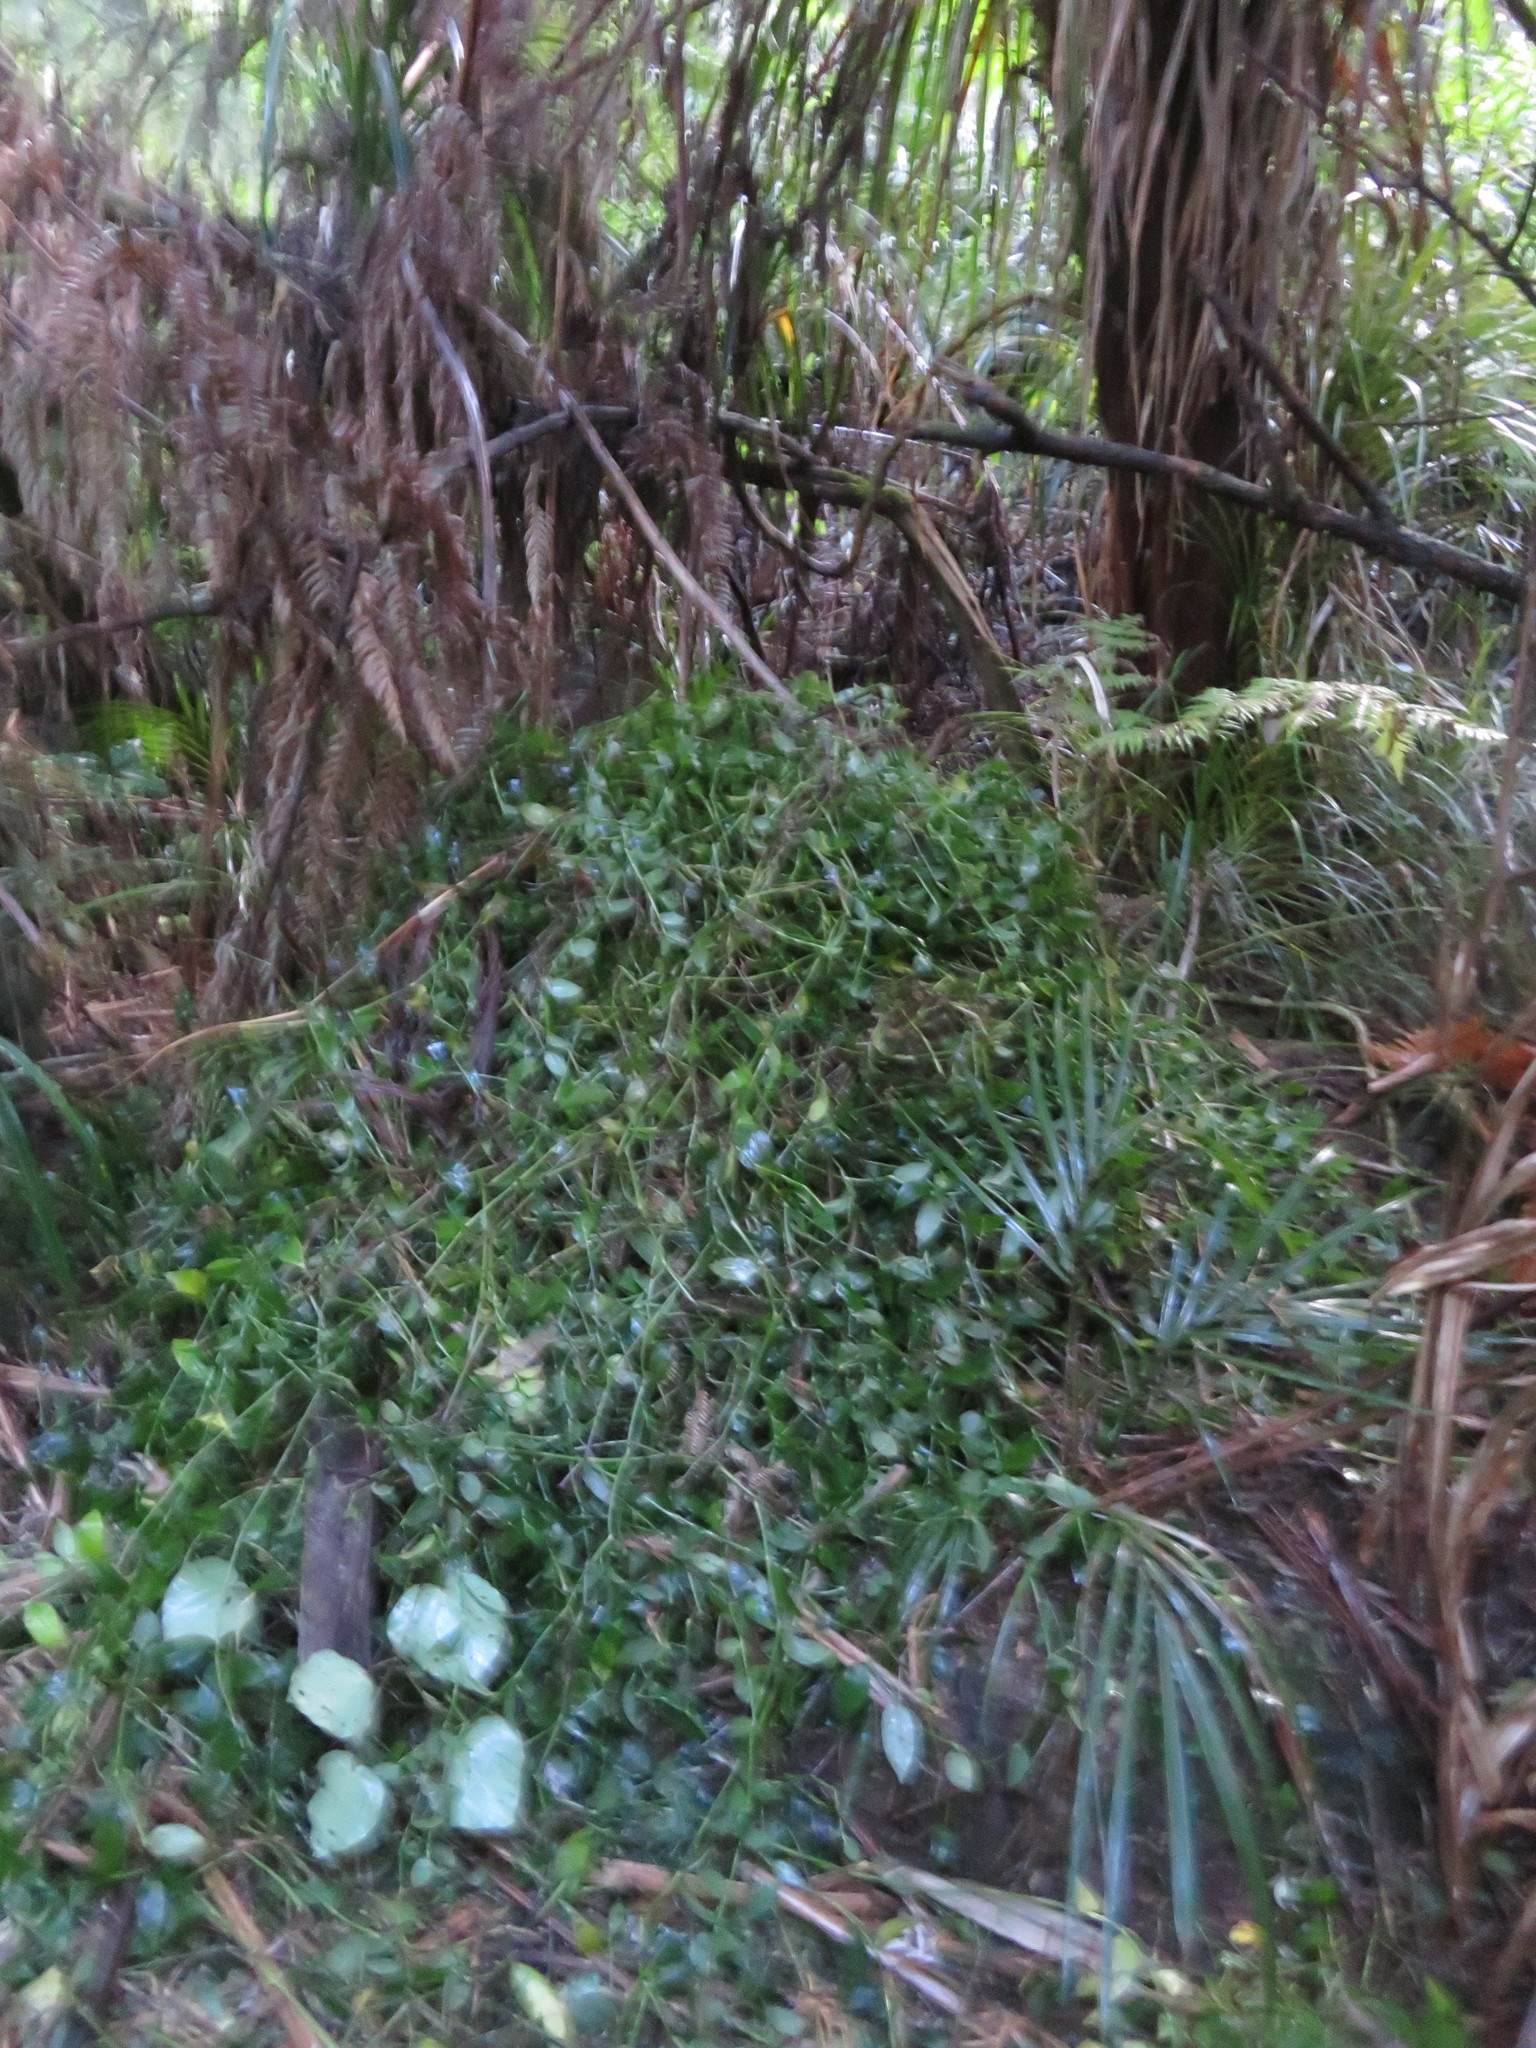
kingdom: Plantae
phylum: Tracheophyta
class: Liliopsida
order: Arecales
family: Arecaceae
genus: Rhopalostylis
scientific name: Rhopalostylis sapida
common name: Feather-duster palm
